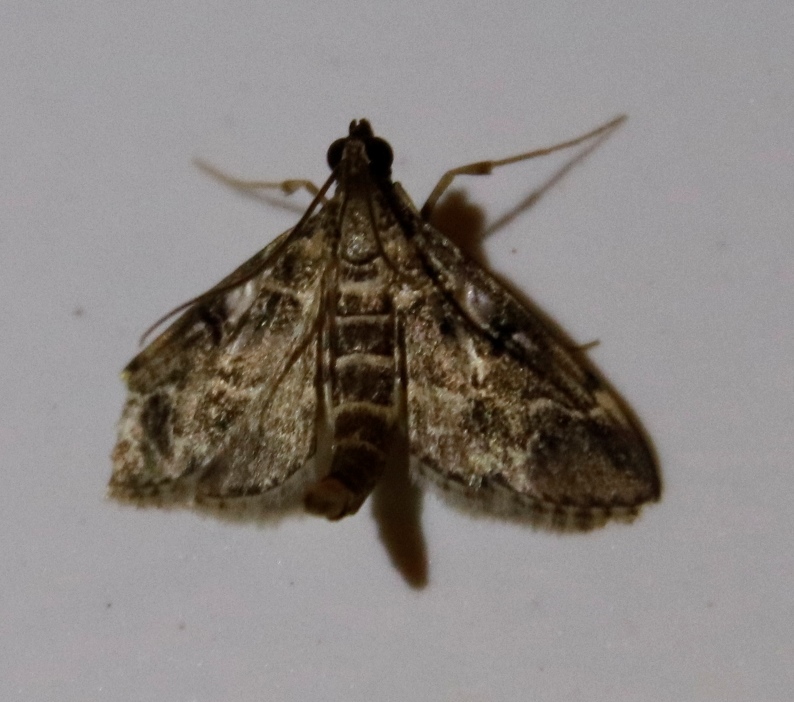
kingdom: Animalia
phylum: Arthropoda
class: Insecta
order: Lepidoptera
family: Crambidae
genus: Duponchelia
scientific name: Duponchelia fovealis
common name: Crambid moth
